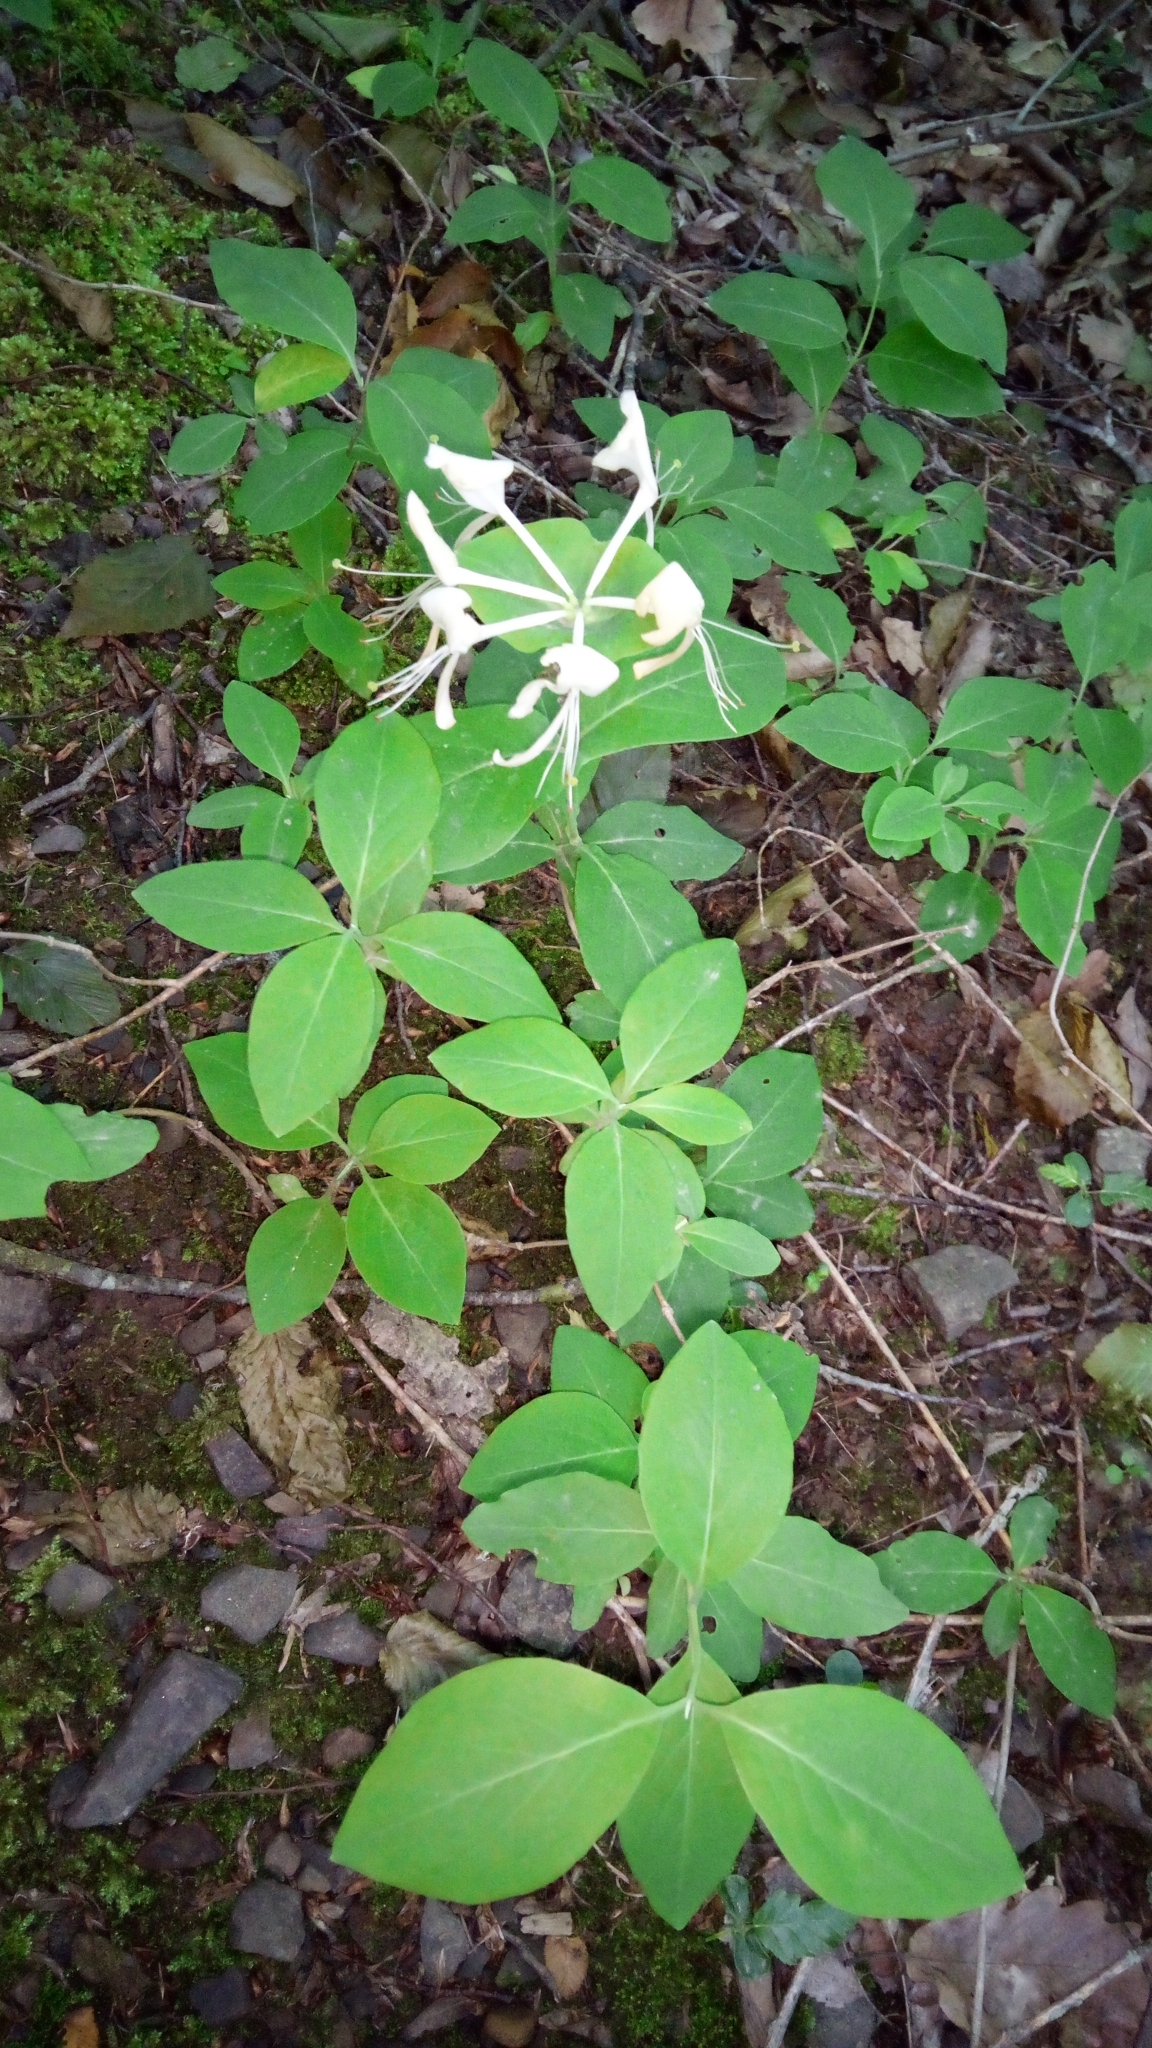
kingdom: Plantae
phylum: Tracheophyta
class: Magnoliopsida
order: Dipsacales
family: Caprifoliaceae
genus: Lonicera
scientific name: Lonicera caprifolium
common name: Perfoliate honeysuckle
